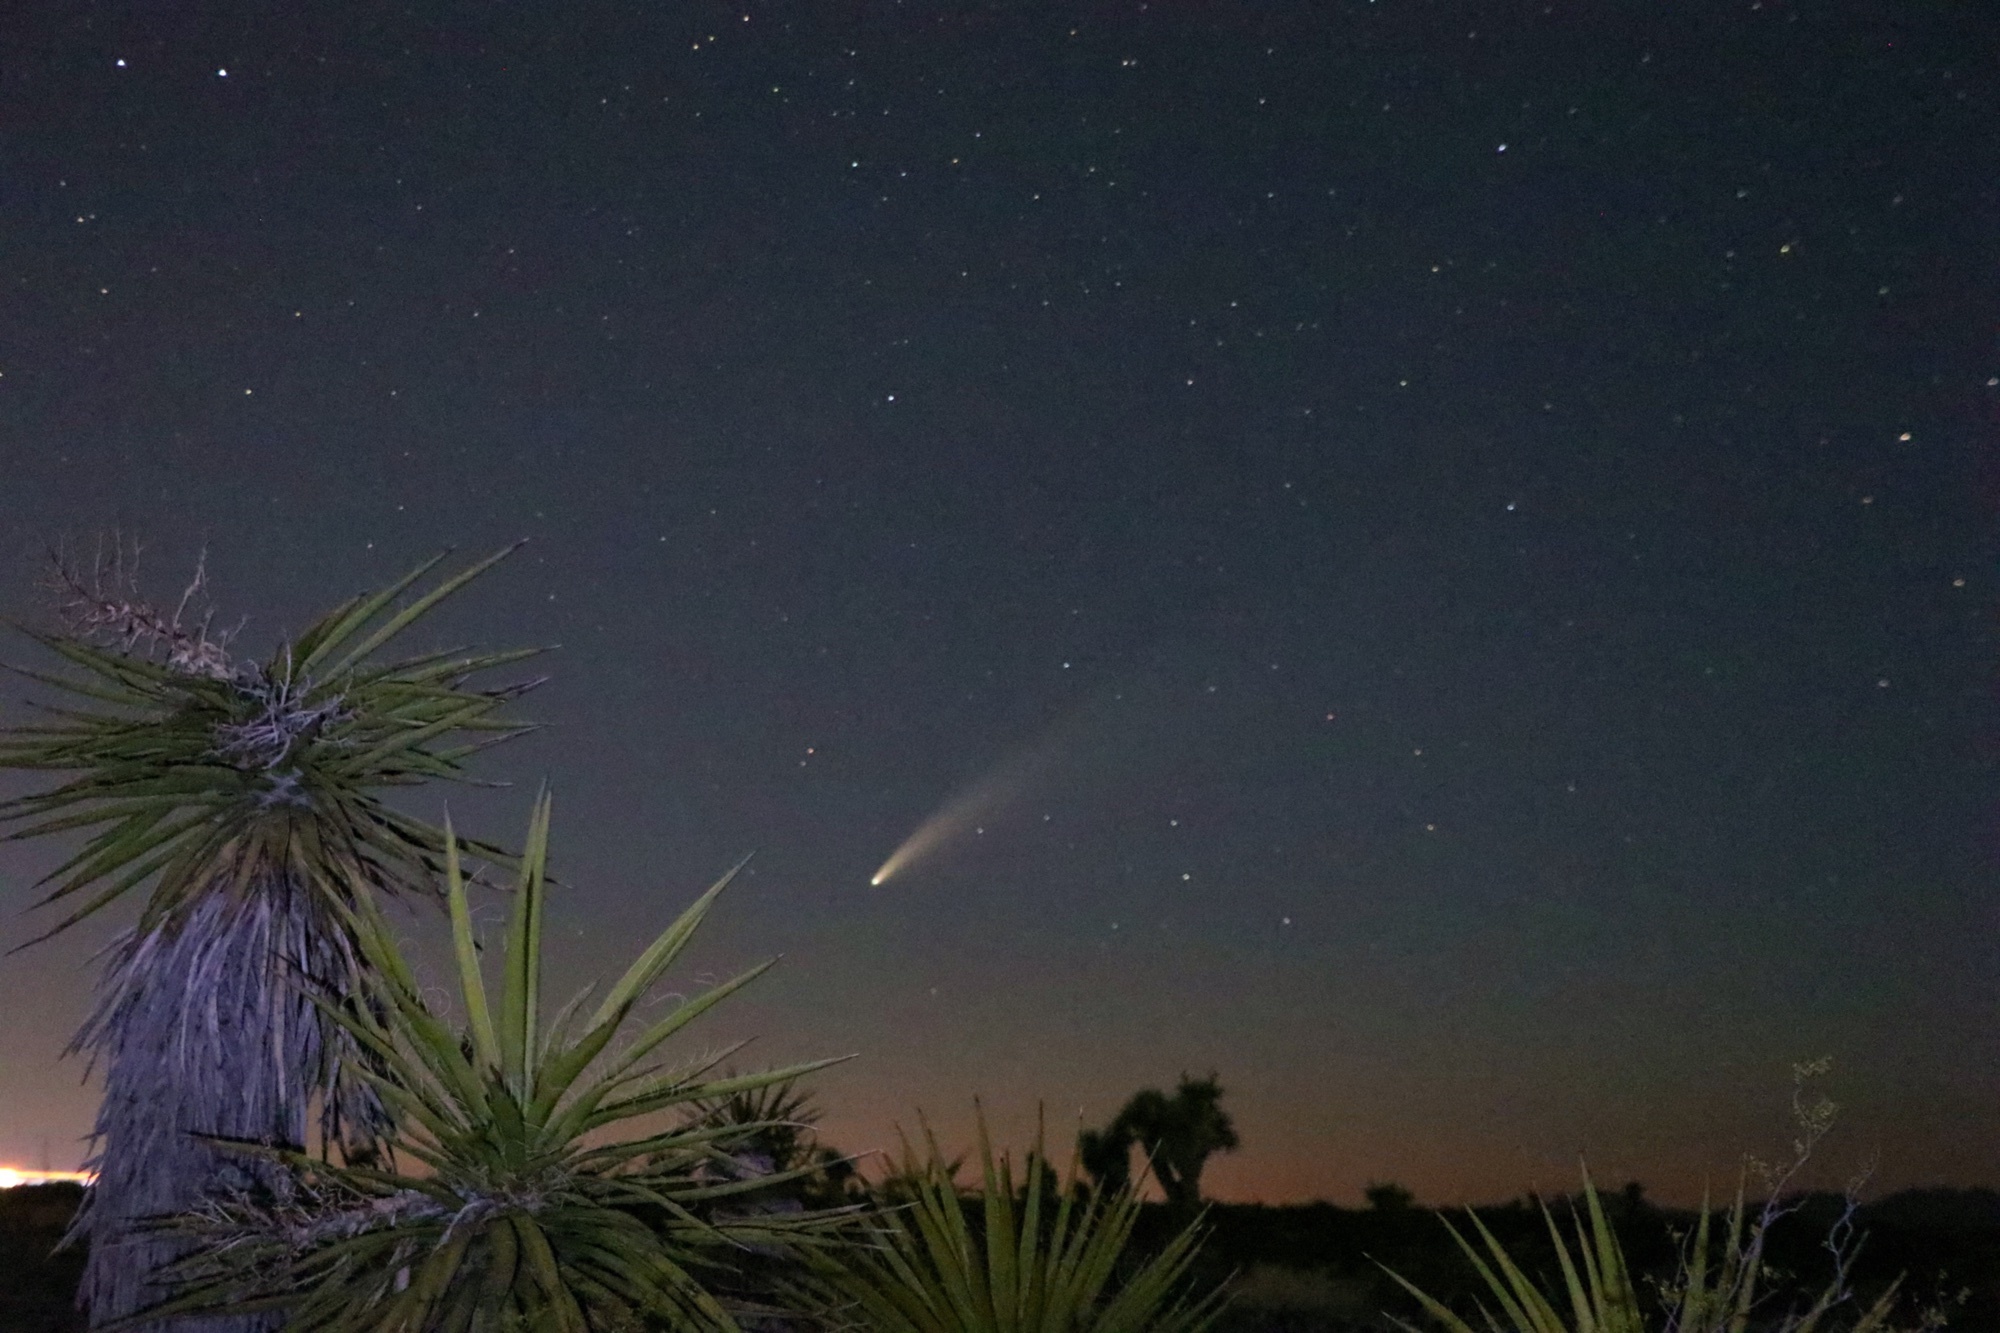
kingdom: Plantae
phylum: Tracheophyta
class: Liliopsida
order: Asparagales
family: Asparagaceae
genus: Yucca
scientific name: Yucca schidigera
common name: Mojave yucca
